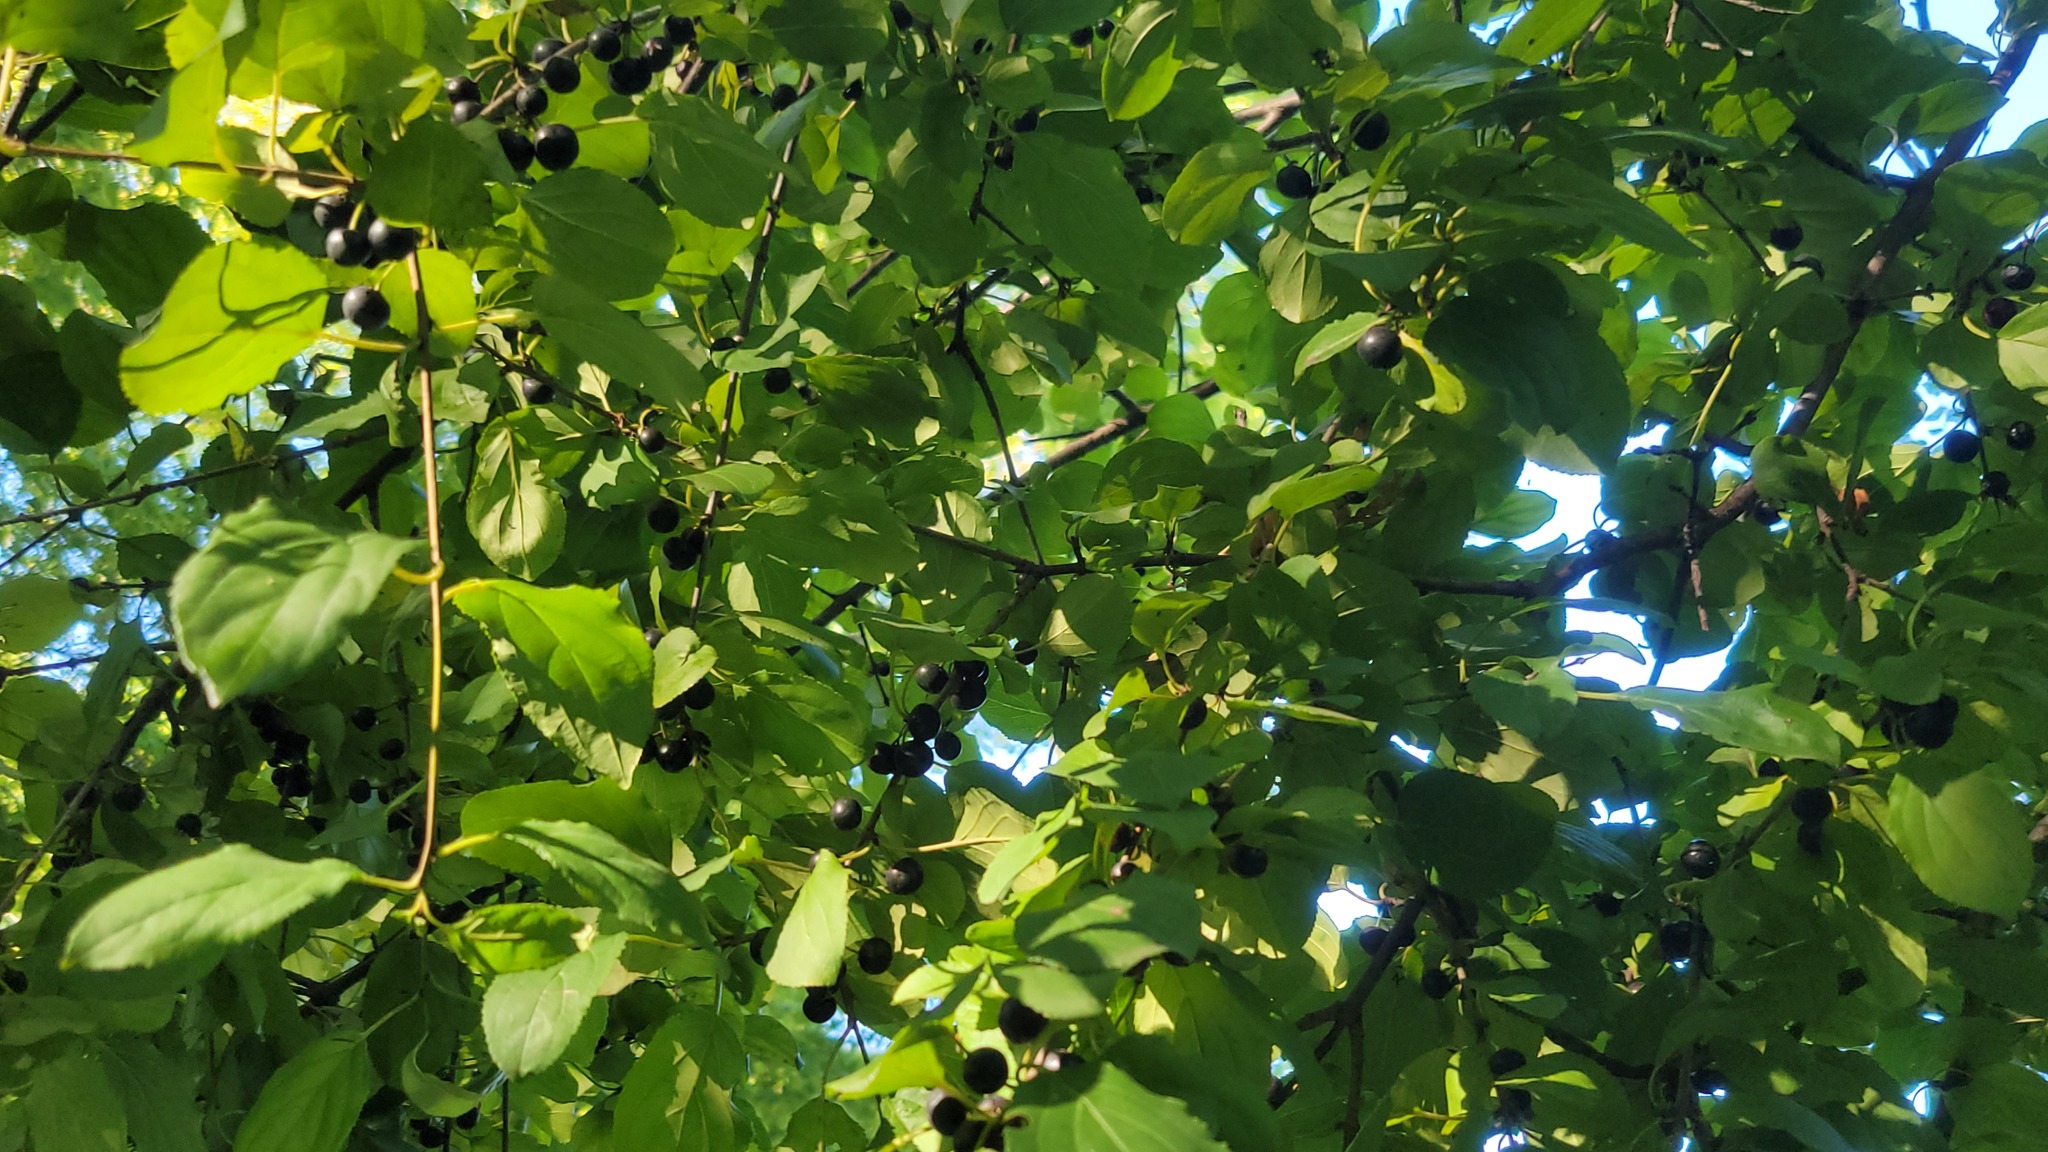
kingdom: Plantae
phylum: Tracheophyta
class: Magnoliopsida
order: Rosales
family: Rhamnaceae
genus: Rhamnus
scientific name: Rhamnus cathartica
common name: Common buckthorn
